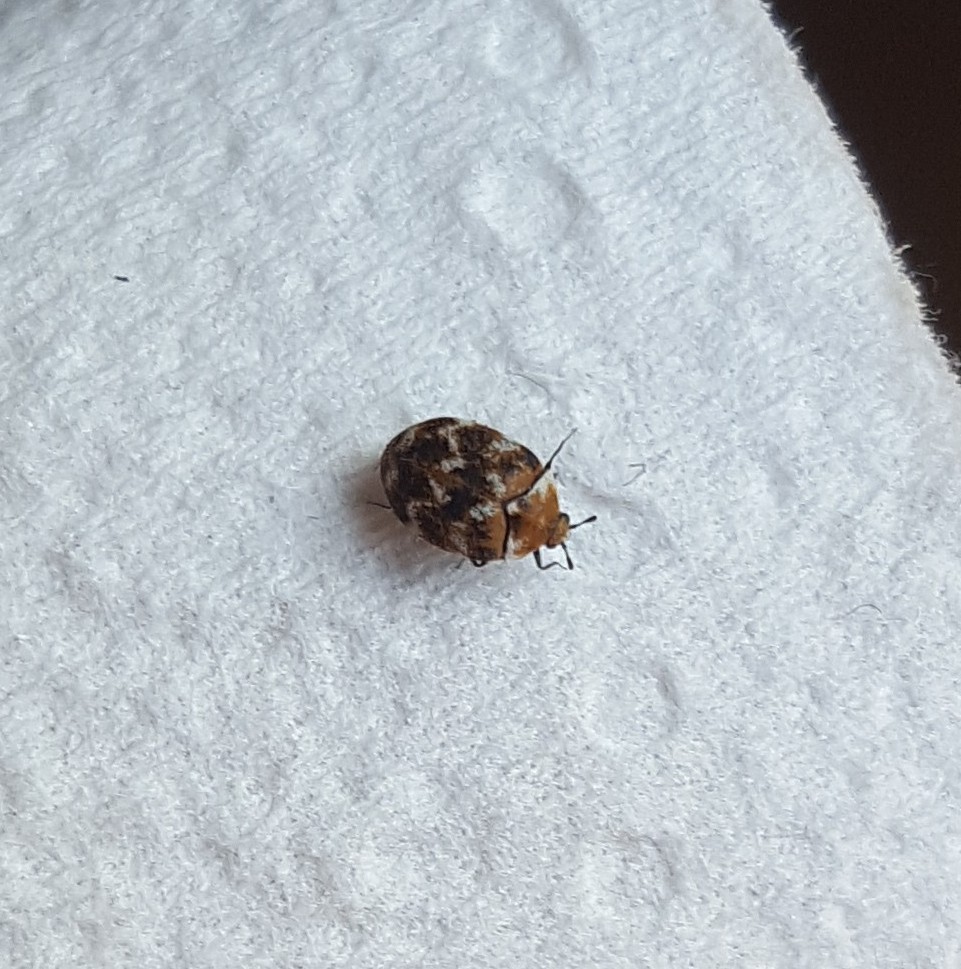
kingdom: Animalia
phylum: Arthropoda
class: Insecta
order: Coleoptera
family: Dermestidae
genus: Anthrenus
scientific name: Anthrenus verbasci
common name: Varied carpet beetle
